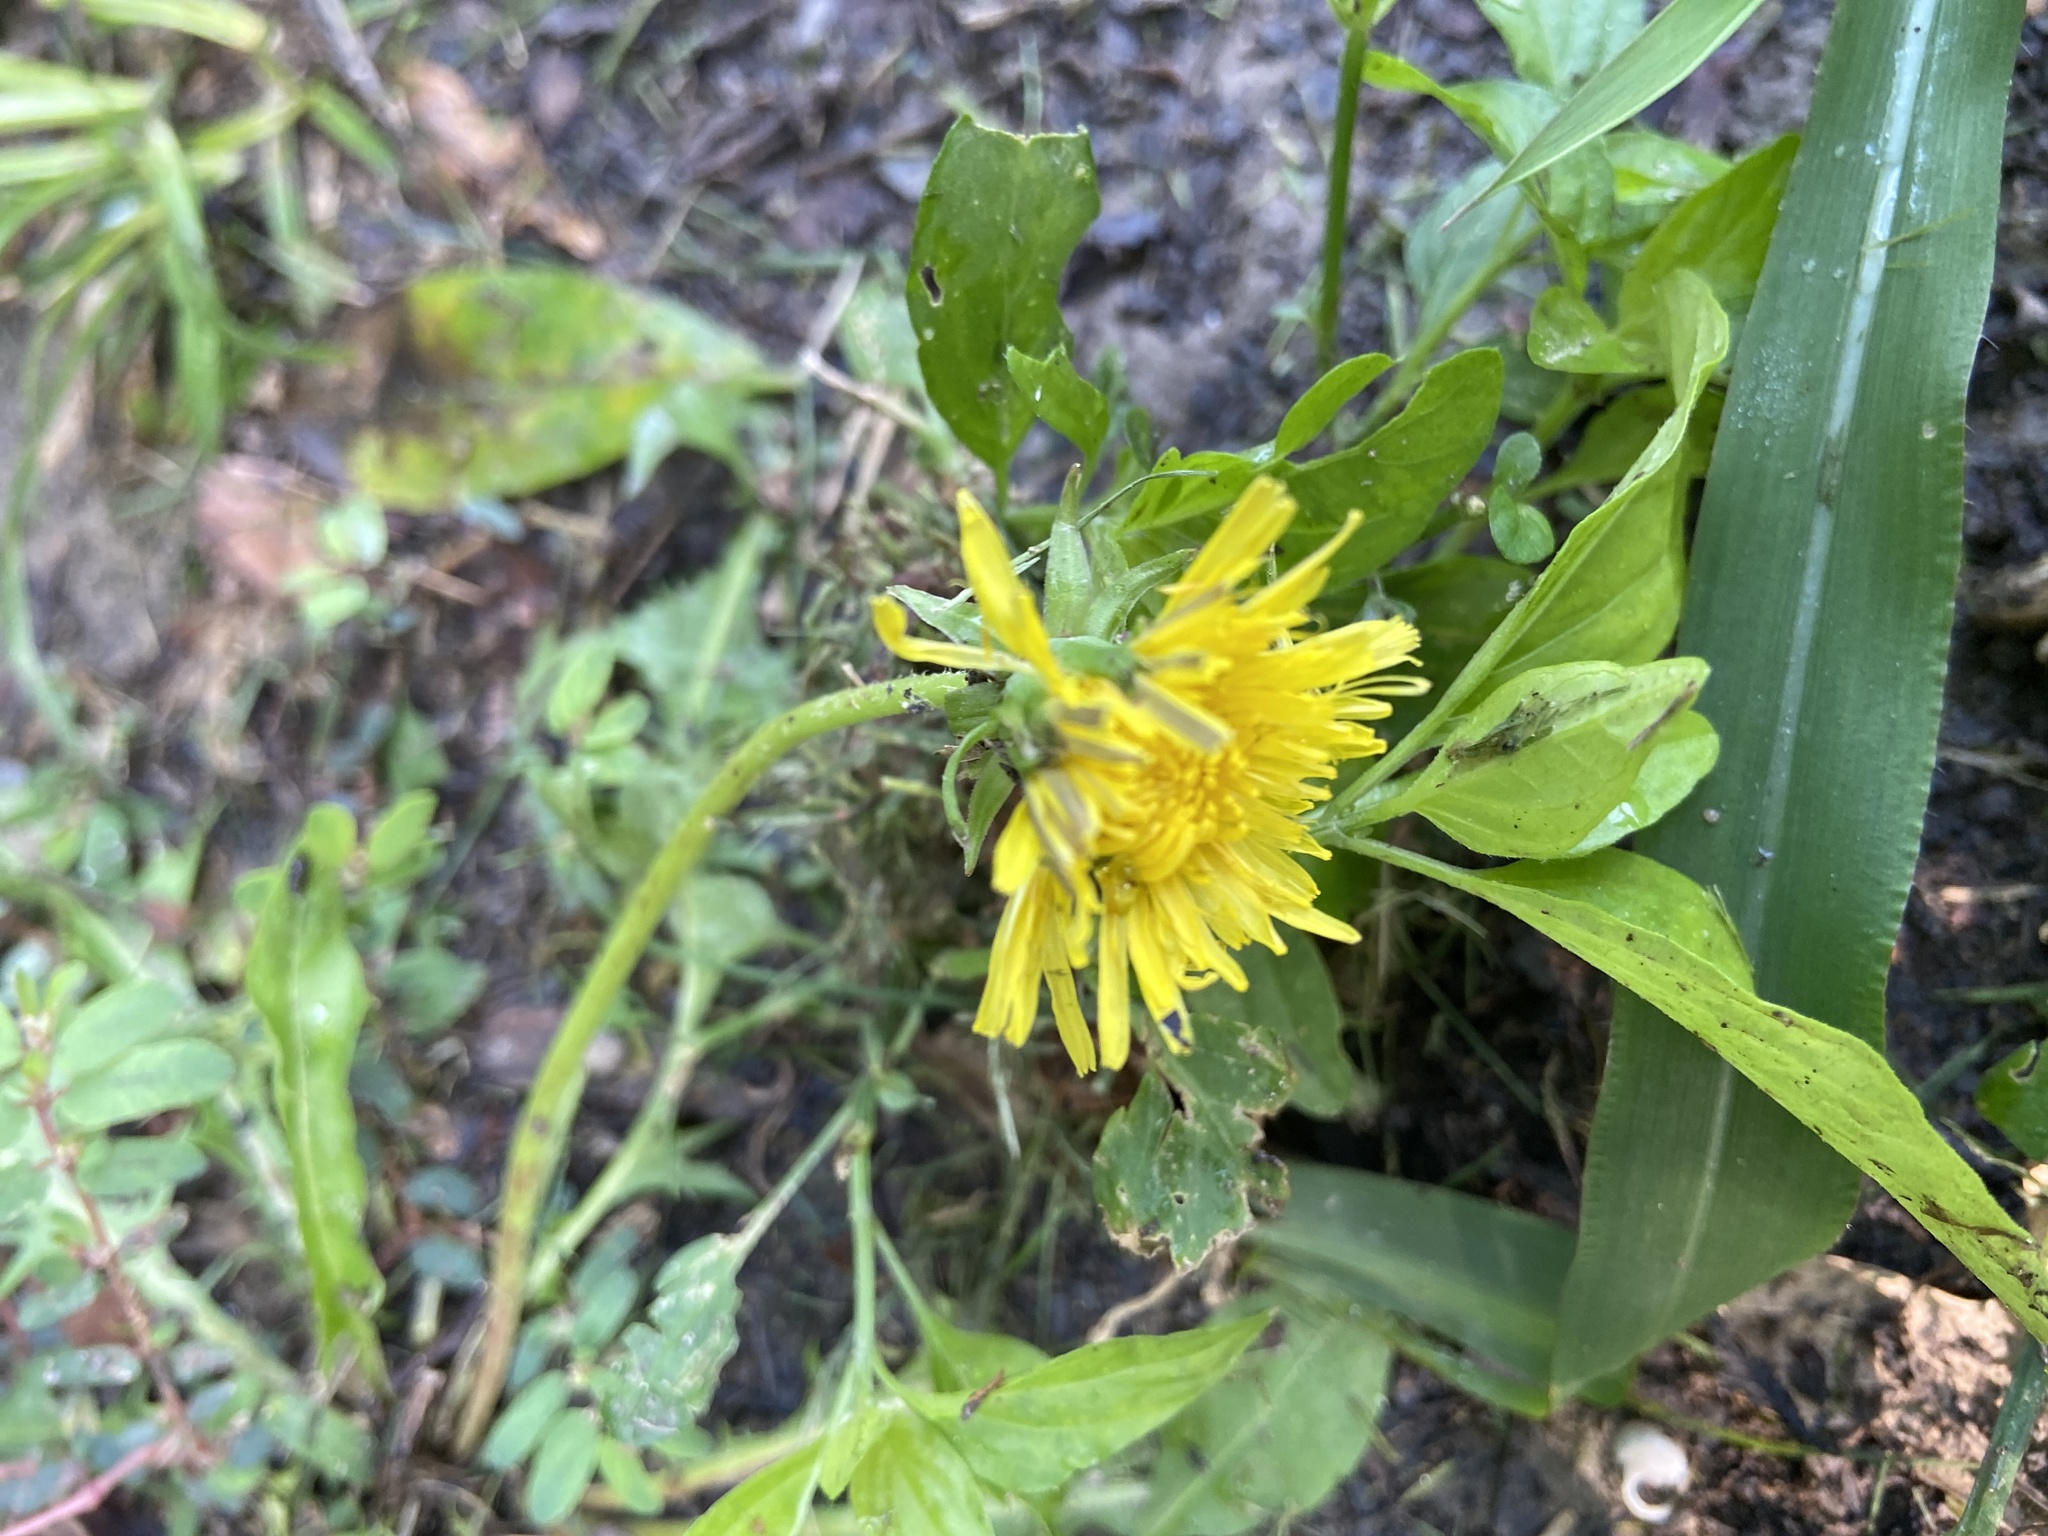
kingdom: Plantae
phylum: Tracheophyta
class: Magnoliopsida
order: Asterales
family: Asteraceae
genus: Taraxacum
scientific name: Taraxacum officinale
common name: Common dandelion
